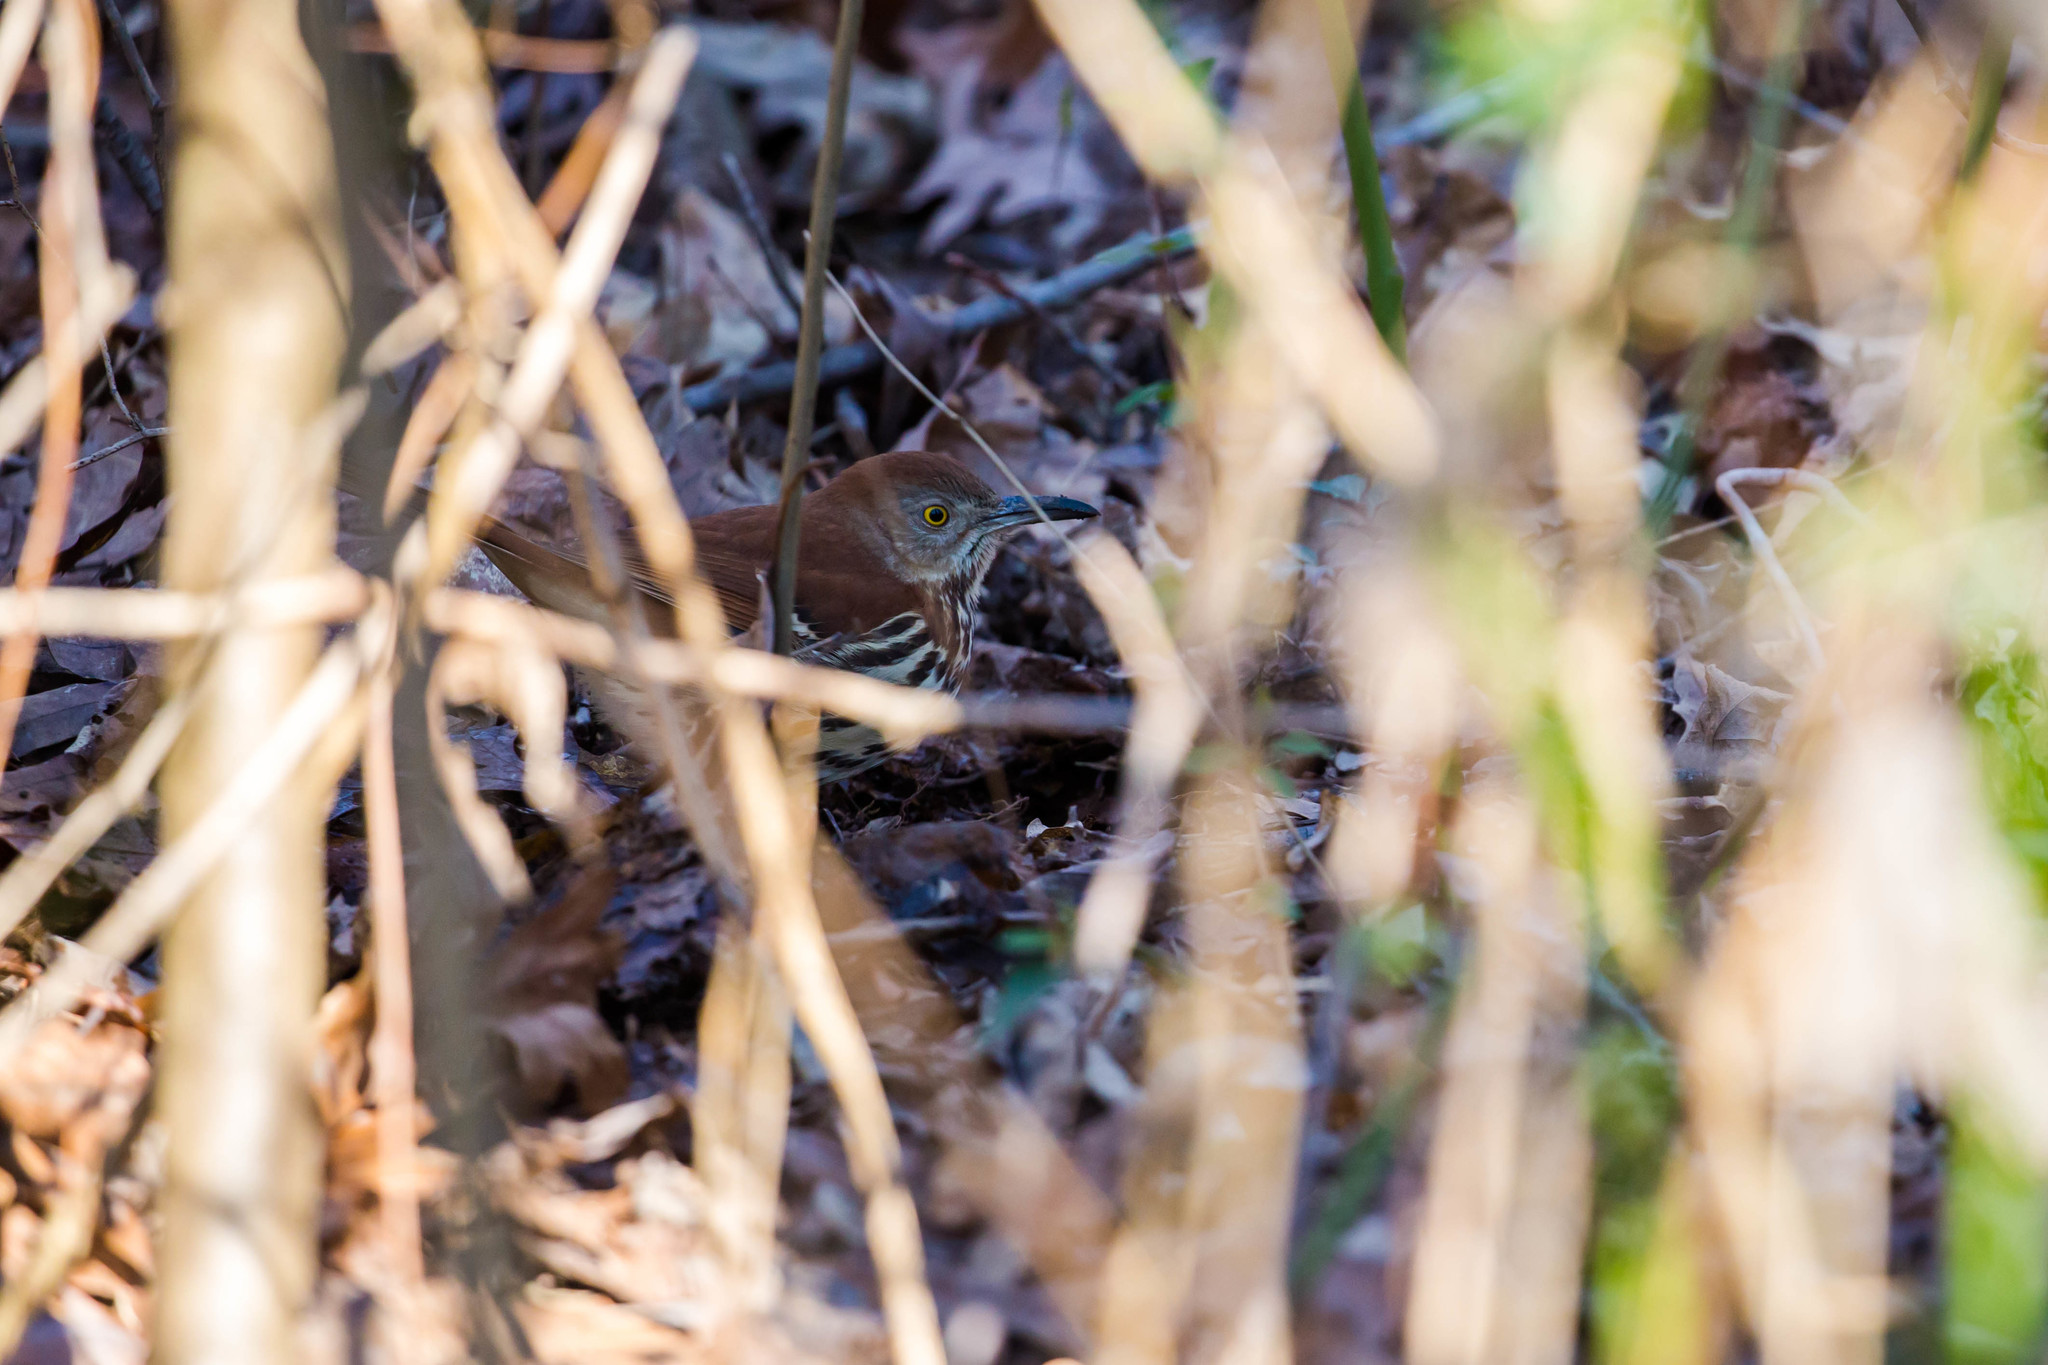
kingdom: Animalia
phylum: Chordata
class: Aves
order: Passeriformes
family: Mimidae
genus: Toxostoma
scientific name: Toxostoma rufum
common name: Brown thrasher
